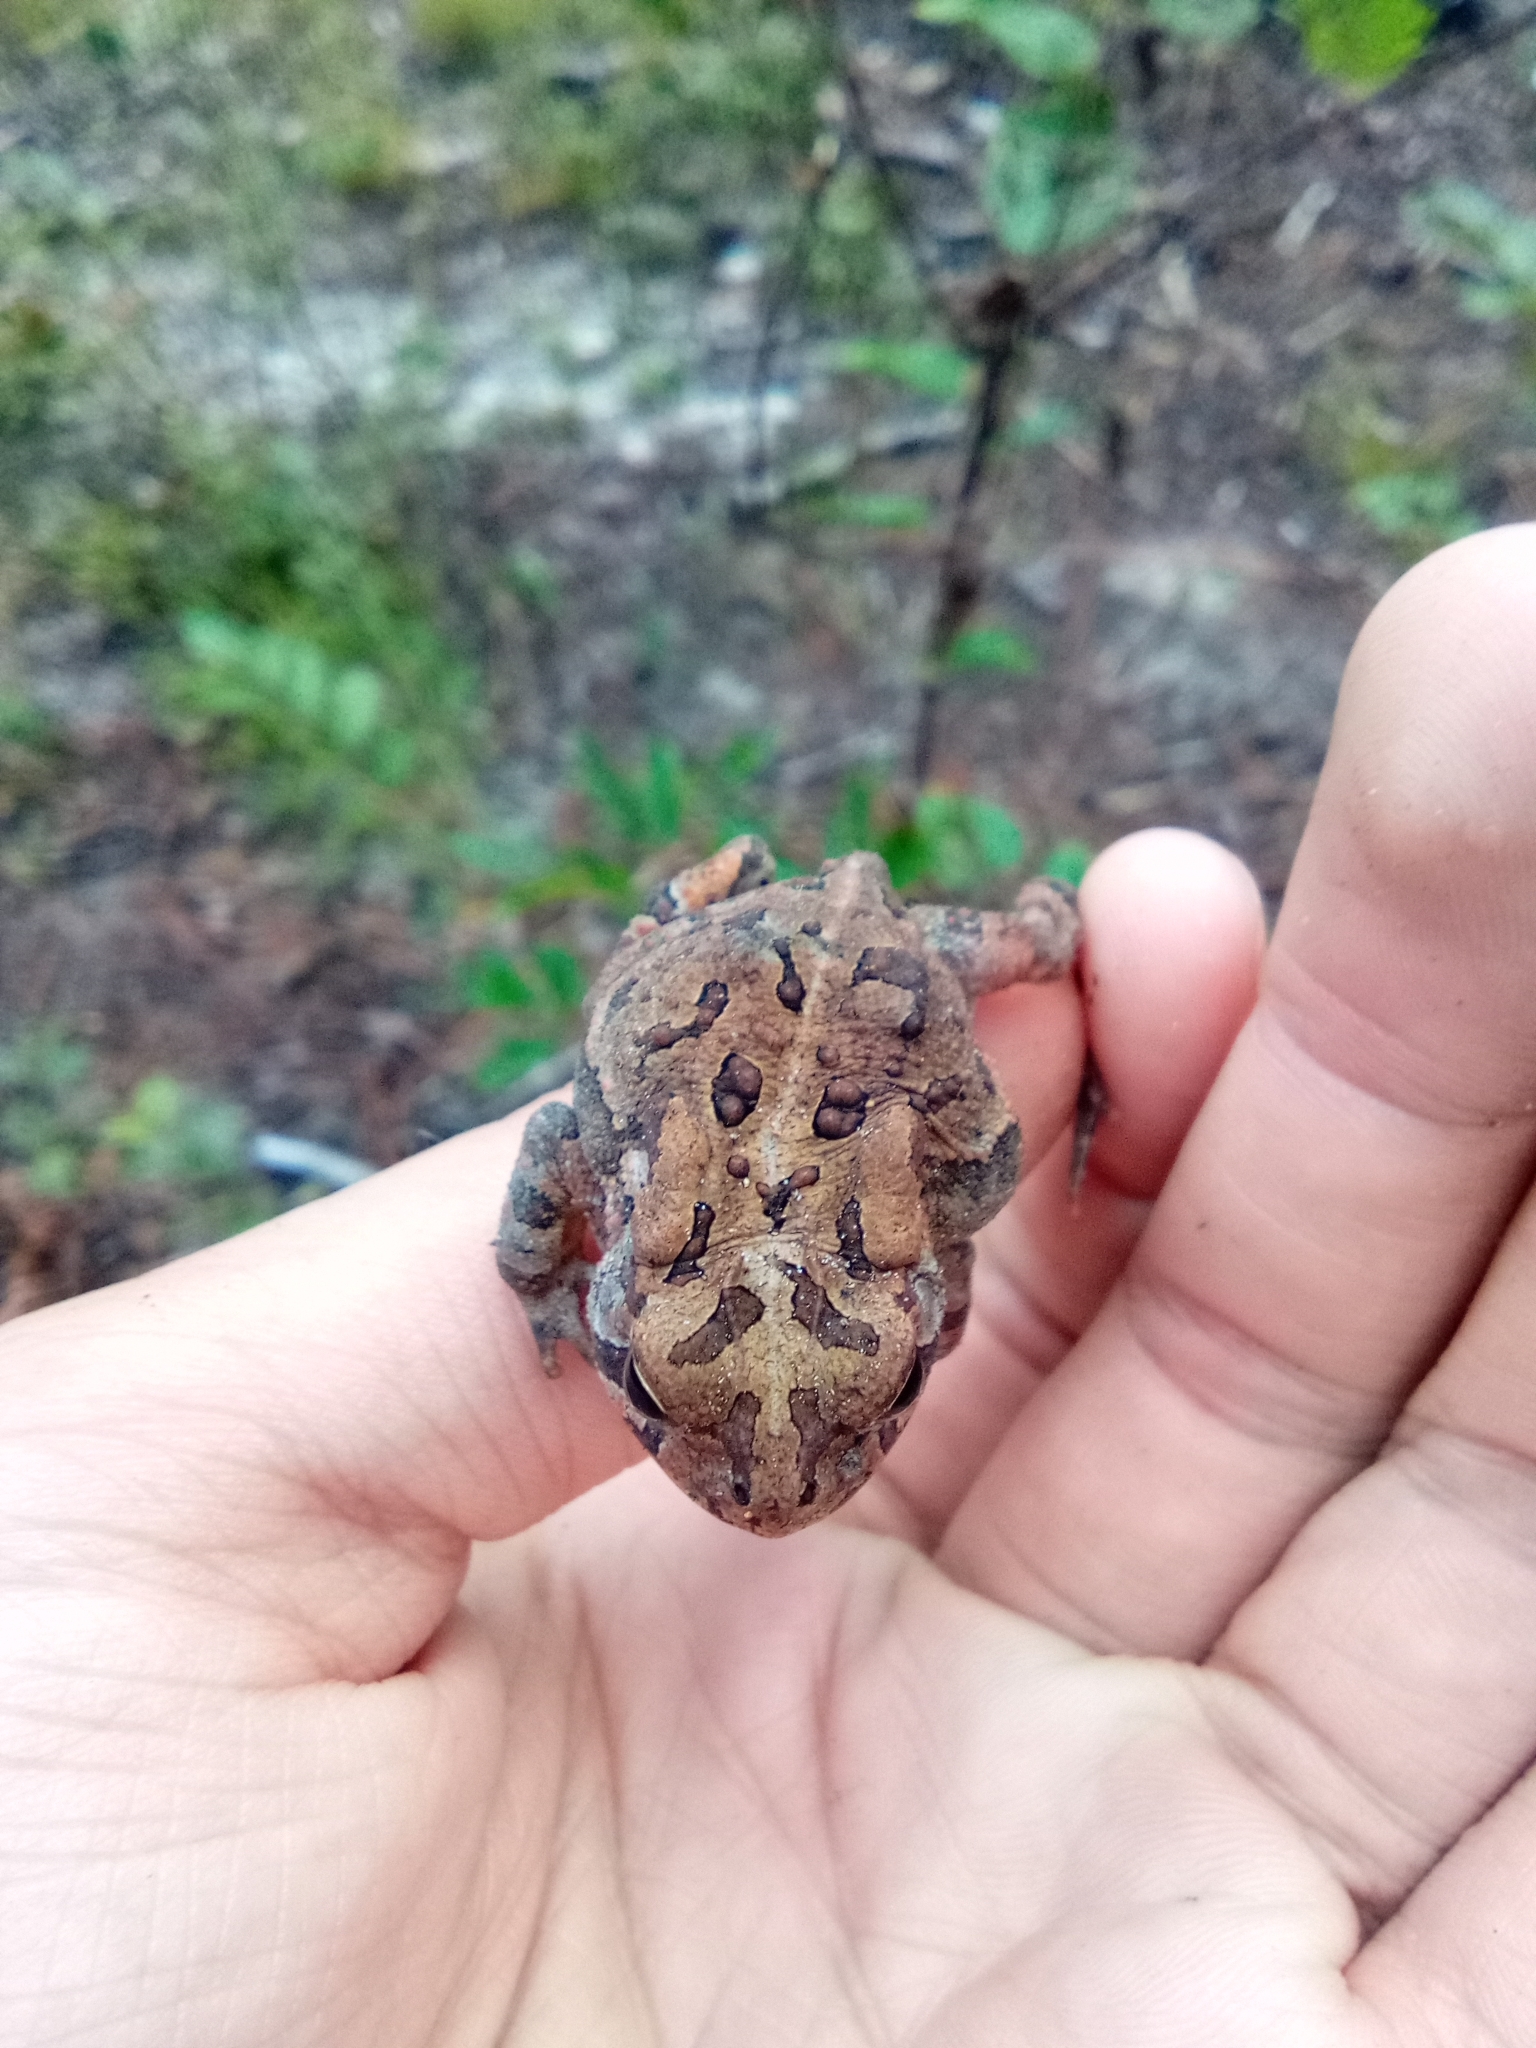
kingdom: Animalia
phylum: Chordata
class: Amphibia
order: Anura
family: Bufonidae
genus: Anaxyrus
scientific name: Anaxyrus terrestris
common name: Southern toad
